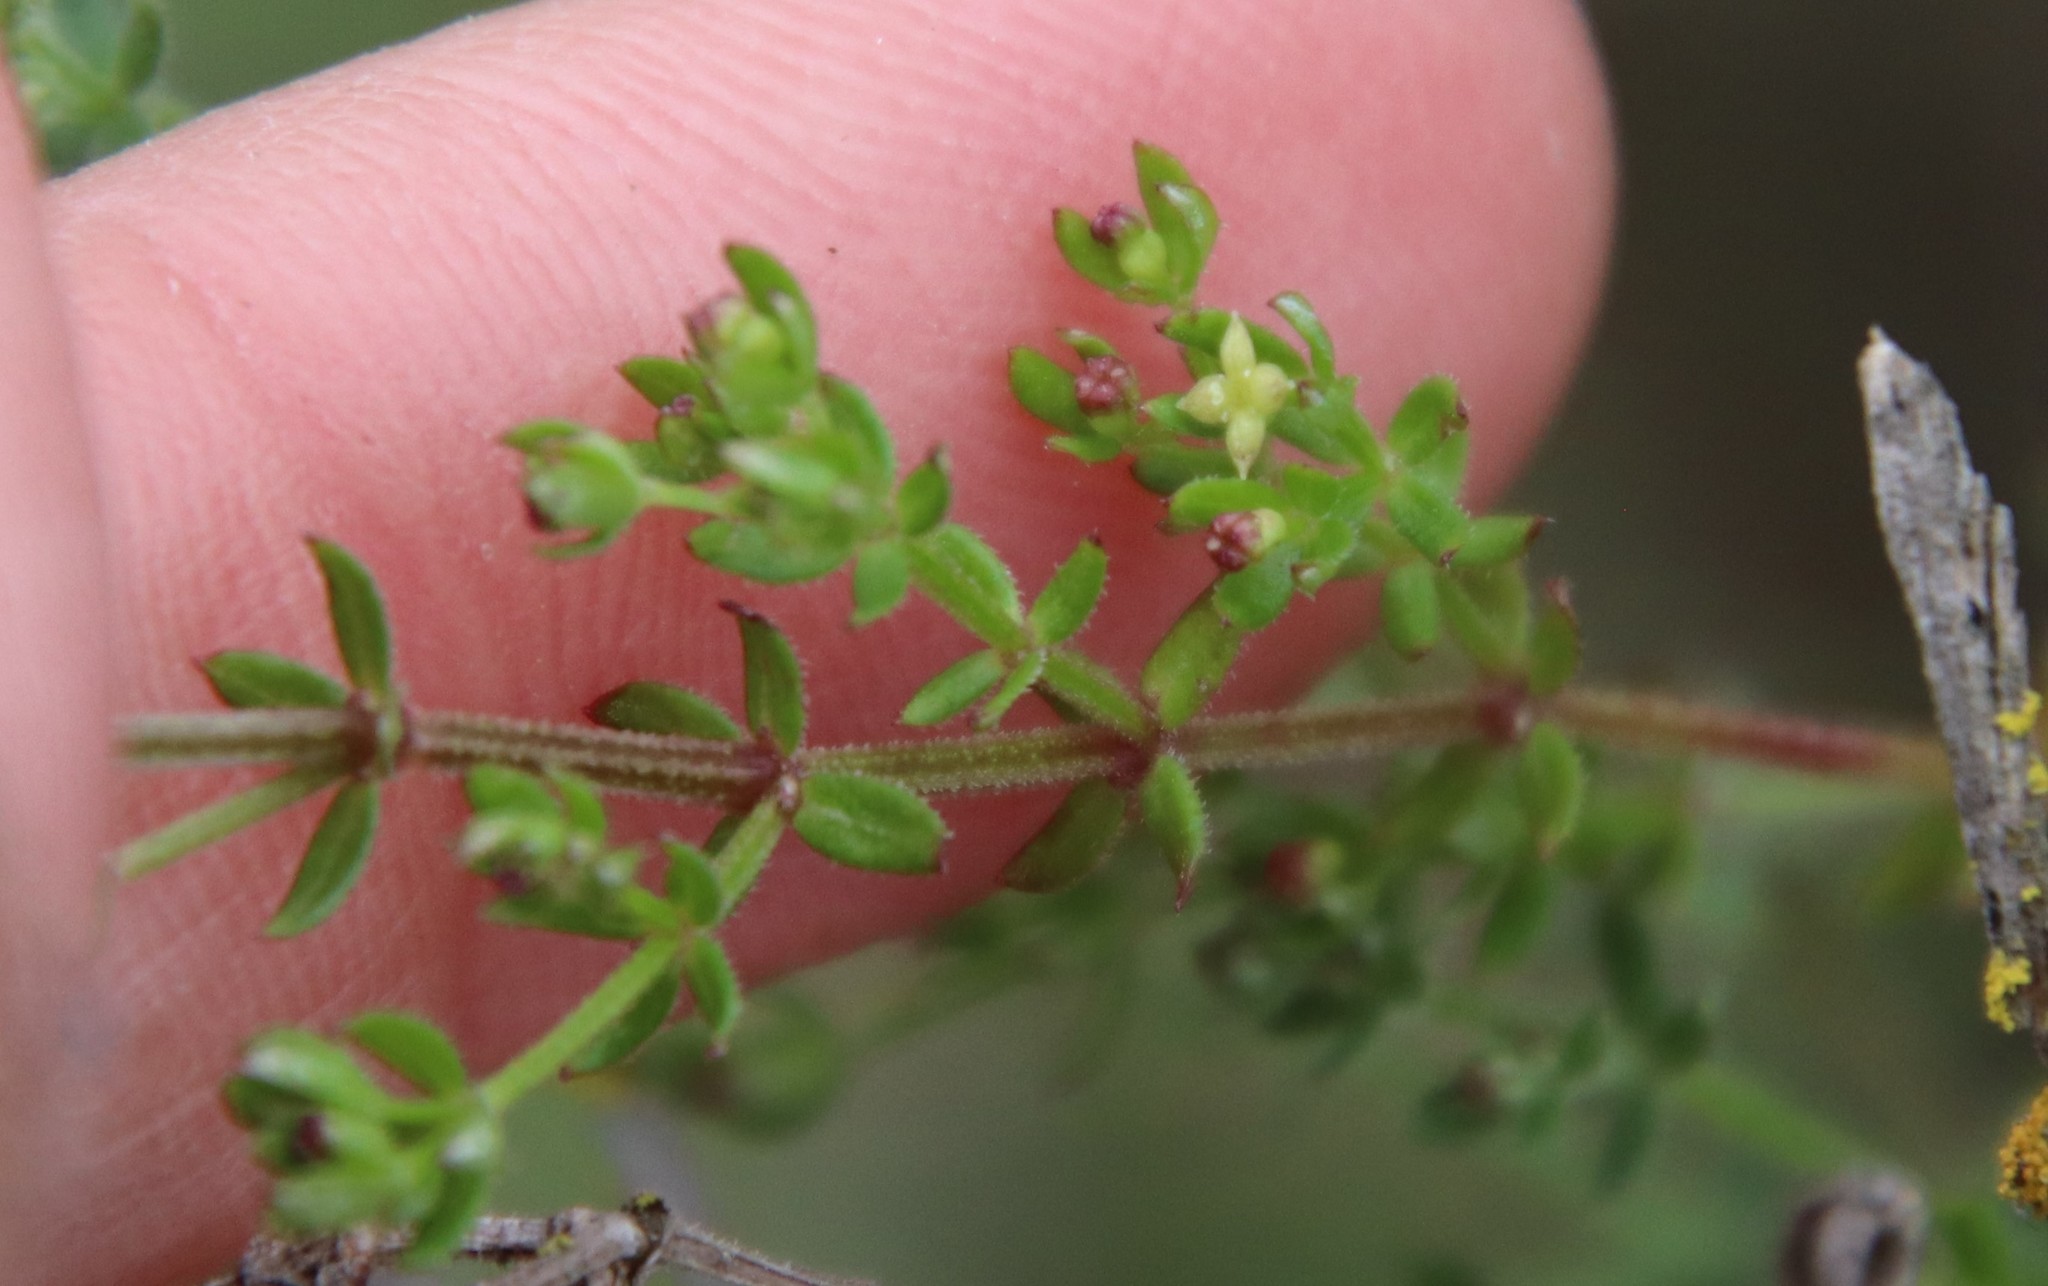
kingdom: Plantae
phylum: Tracheophyta
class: Magnoliopsida
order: Gentianales
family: Rubiaceae
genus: Galium
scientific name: Galium angustifolium
